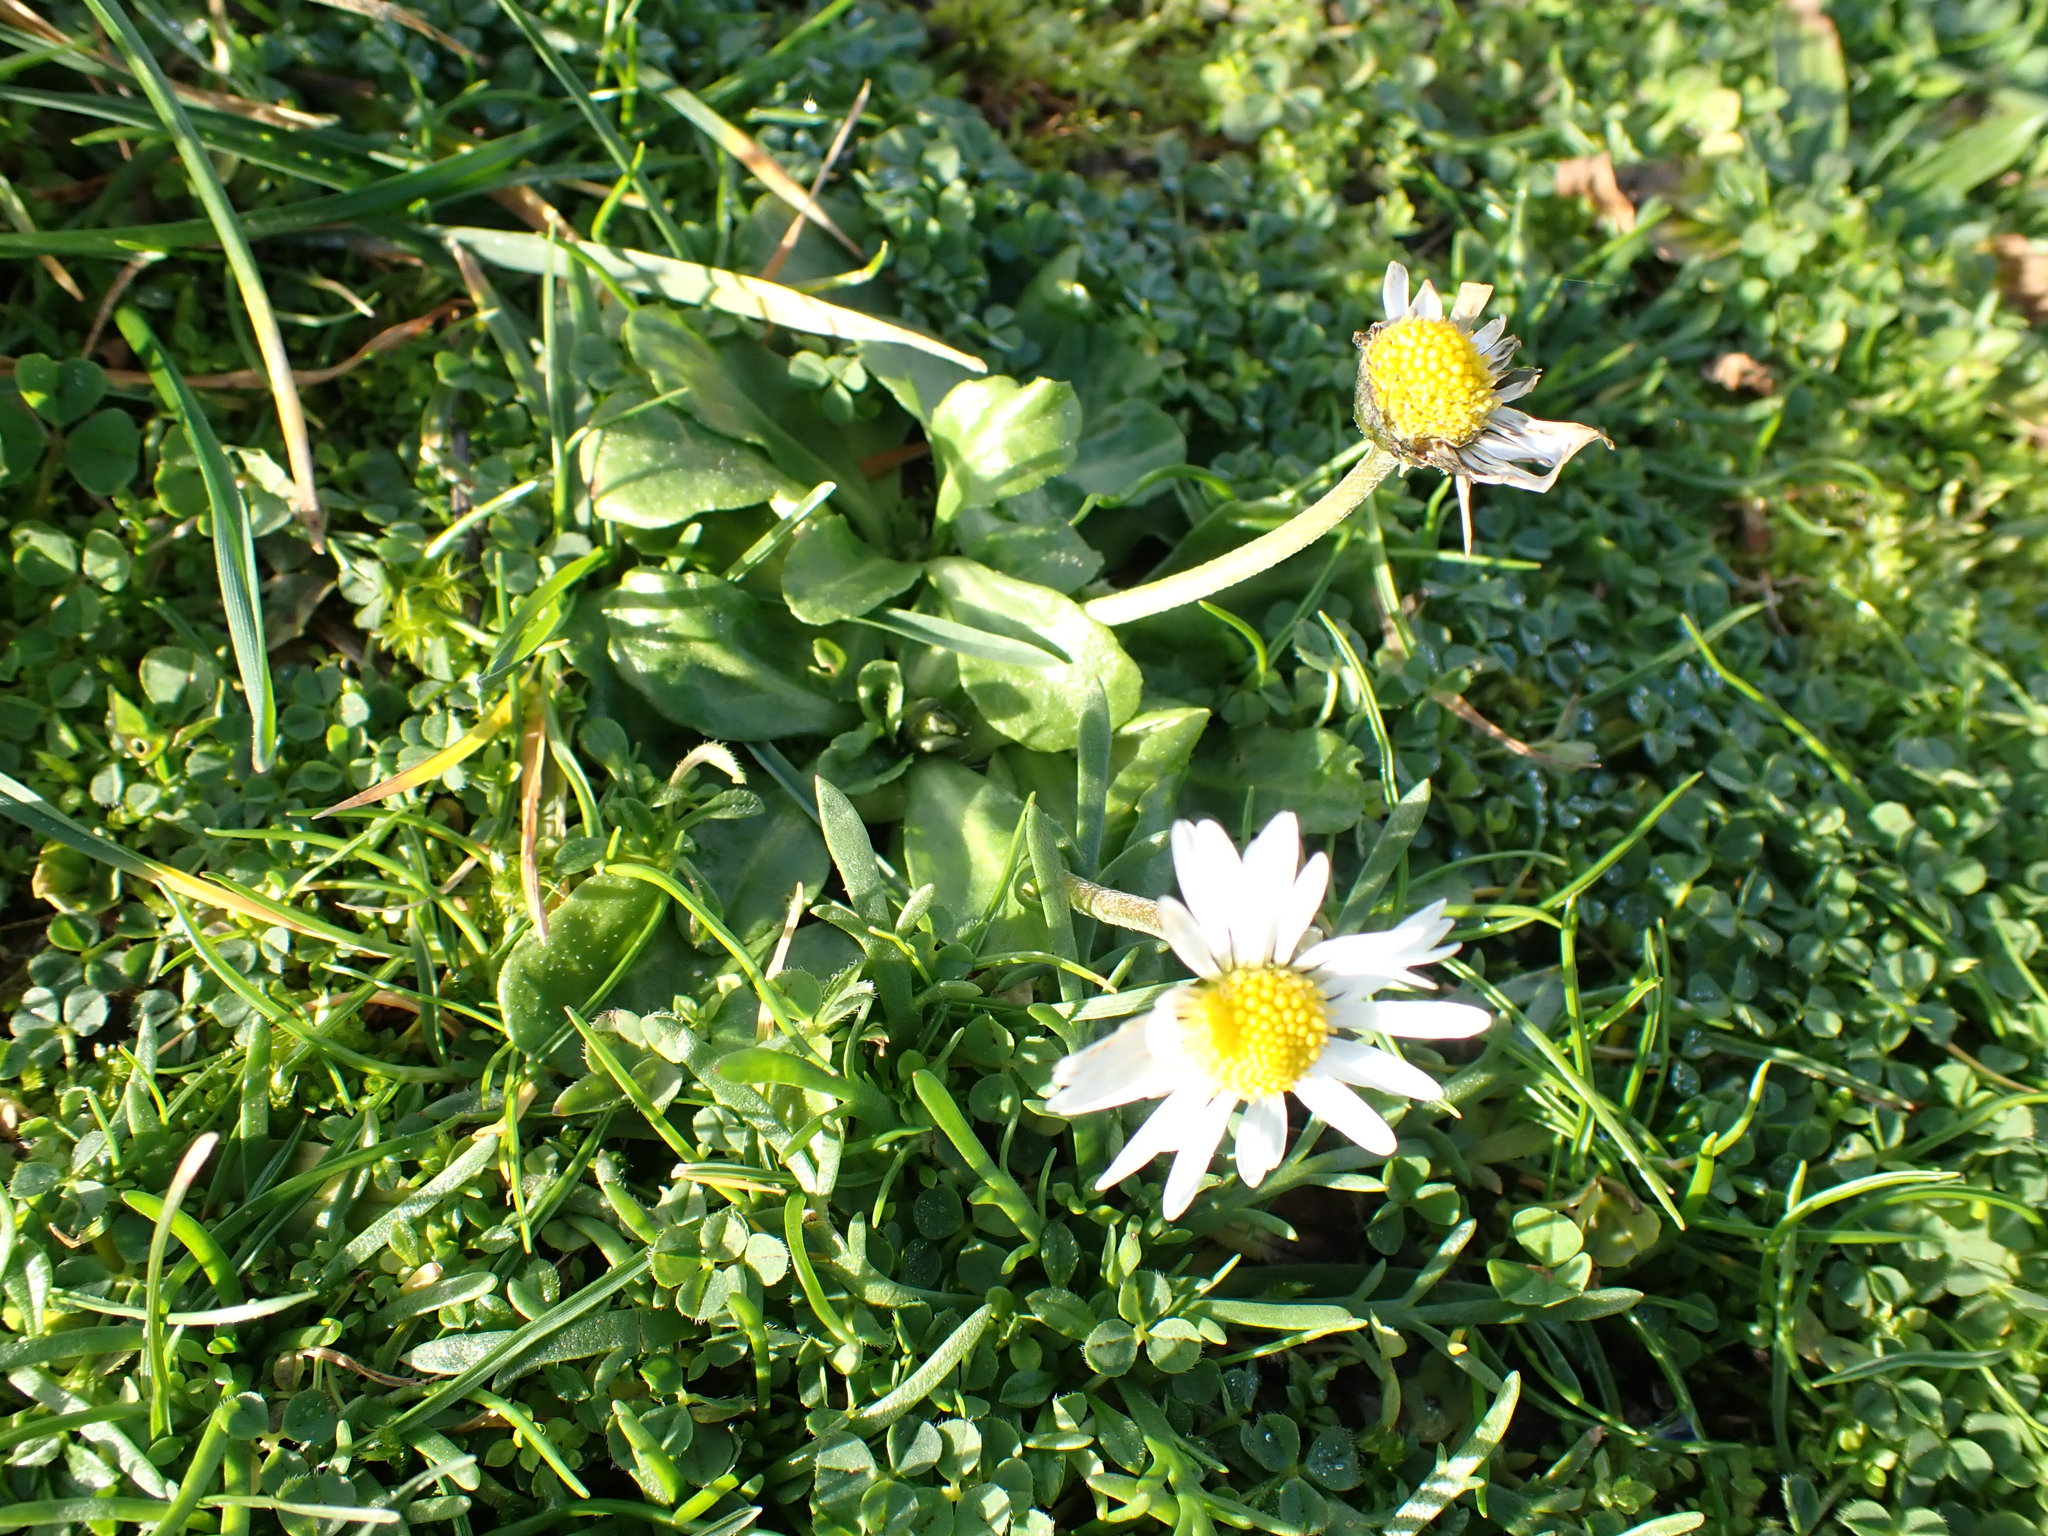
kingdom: Plantae
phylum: Tracheophyta
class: Magnoliopsida
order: Asterales
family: Asteraceae
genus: Bellis
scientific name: Bellis perennis
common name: Lawndaisy
